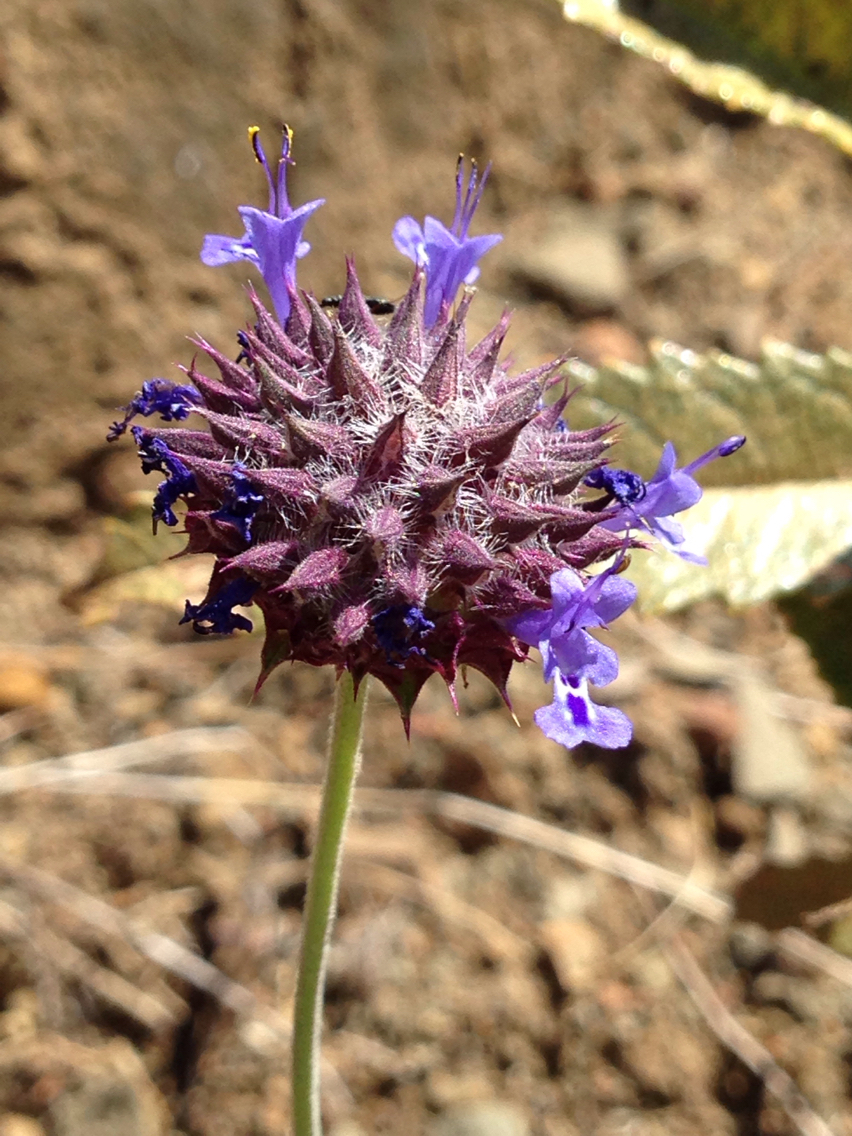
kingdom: Plantae
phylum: Tracheophyta
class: Magnoliopsida
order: Lamiales
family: Lamiaceae
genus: Salvia
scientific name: Salvia columbariae
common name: Chia
